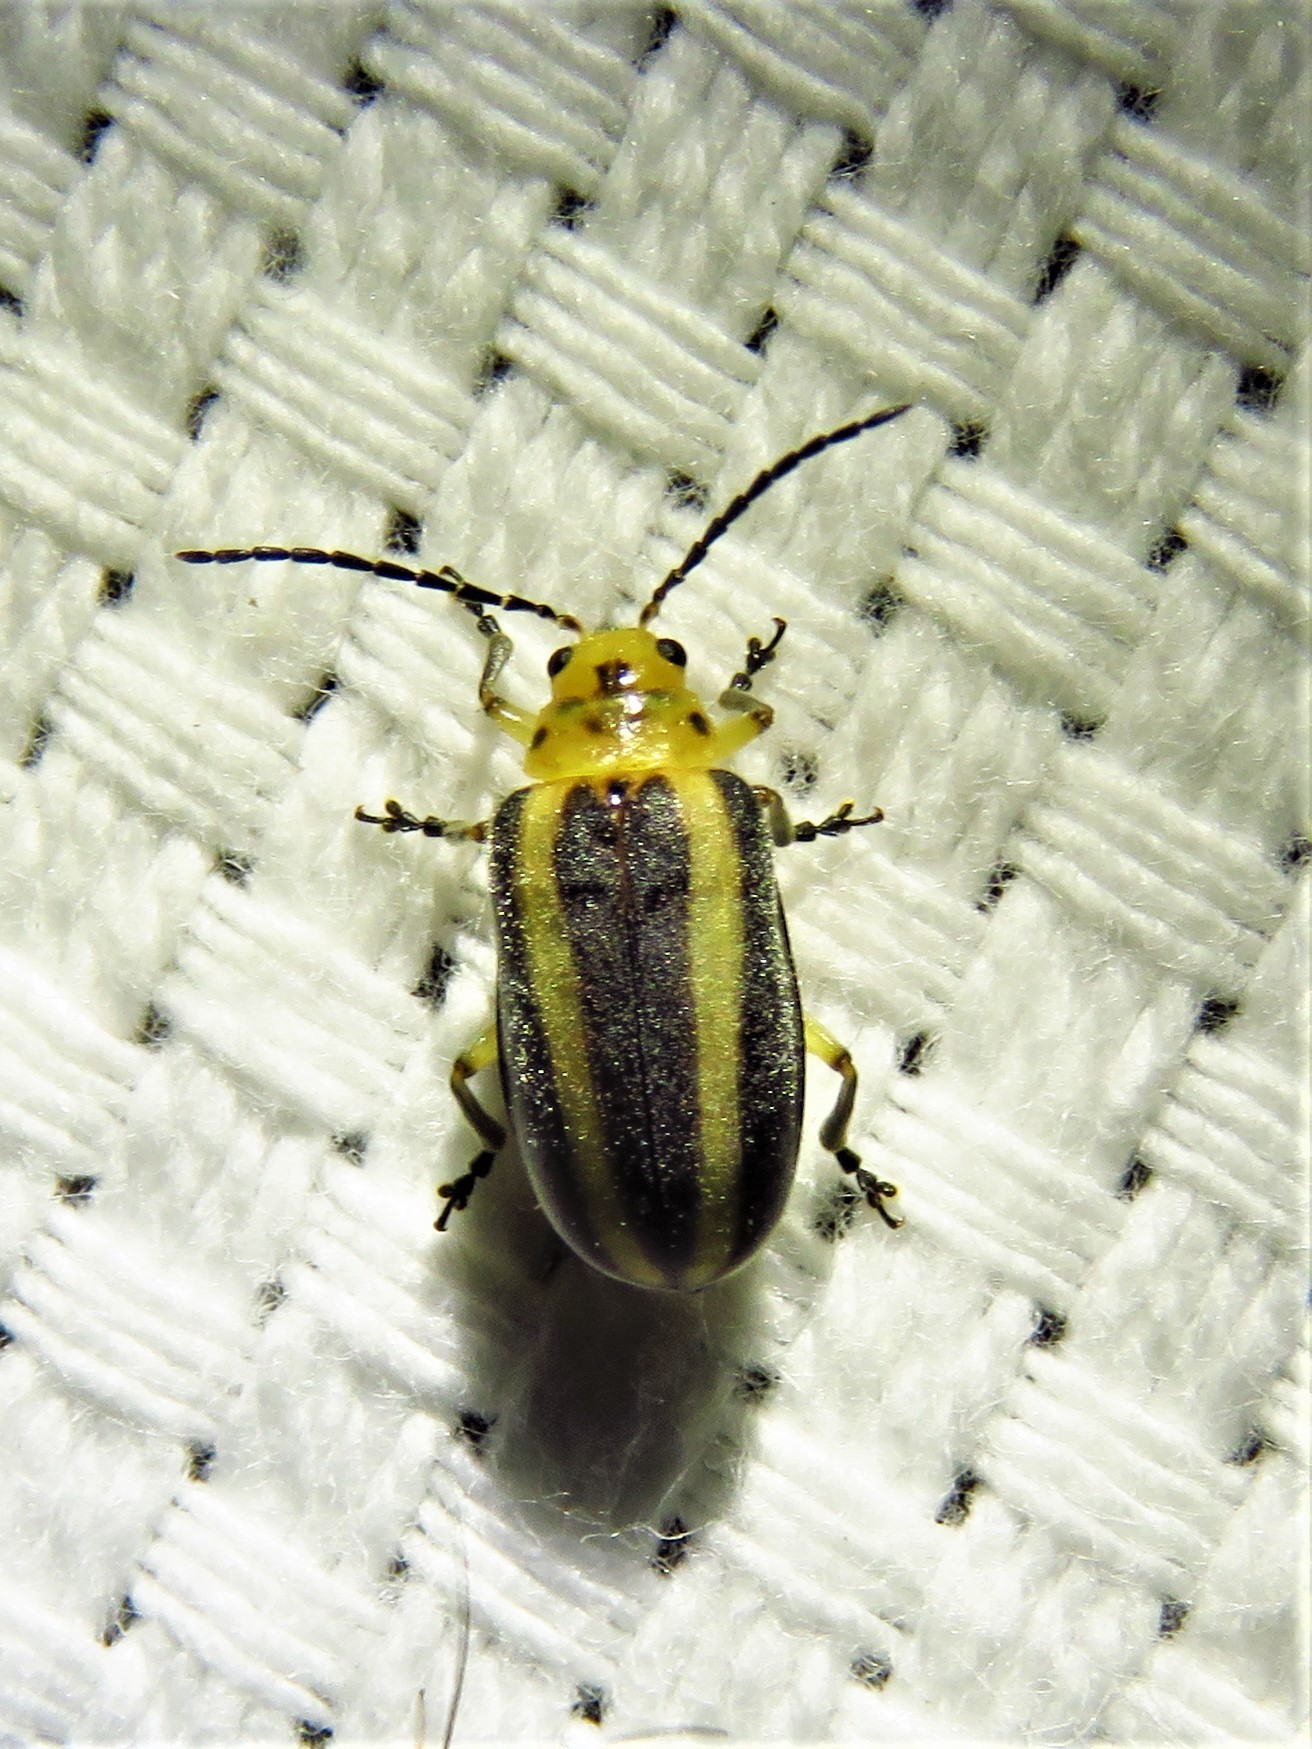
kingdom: Animalia
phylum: Arthropoda
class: Insecta
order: Coleoptera
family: Chrysomelidae
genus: Derospidea
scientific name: Derospidea brevicollis
